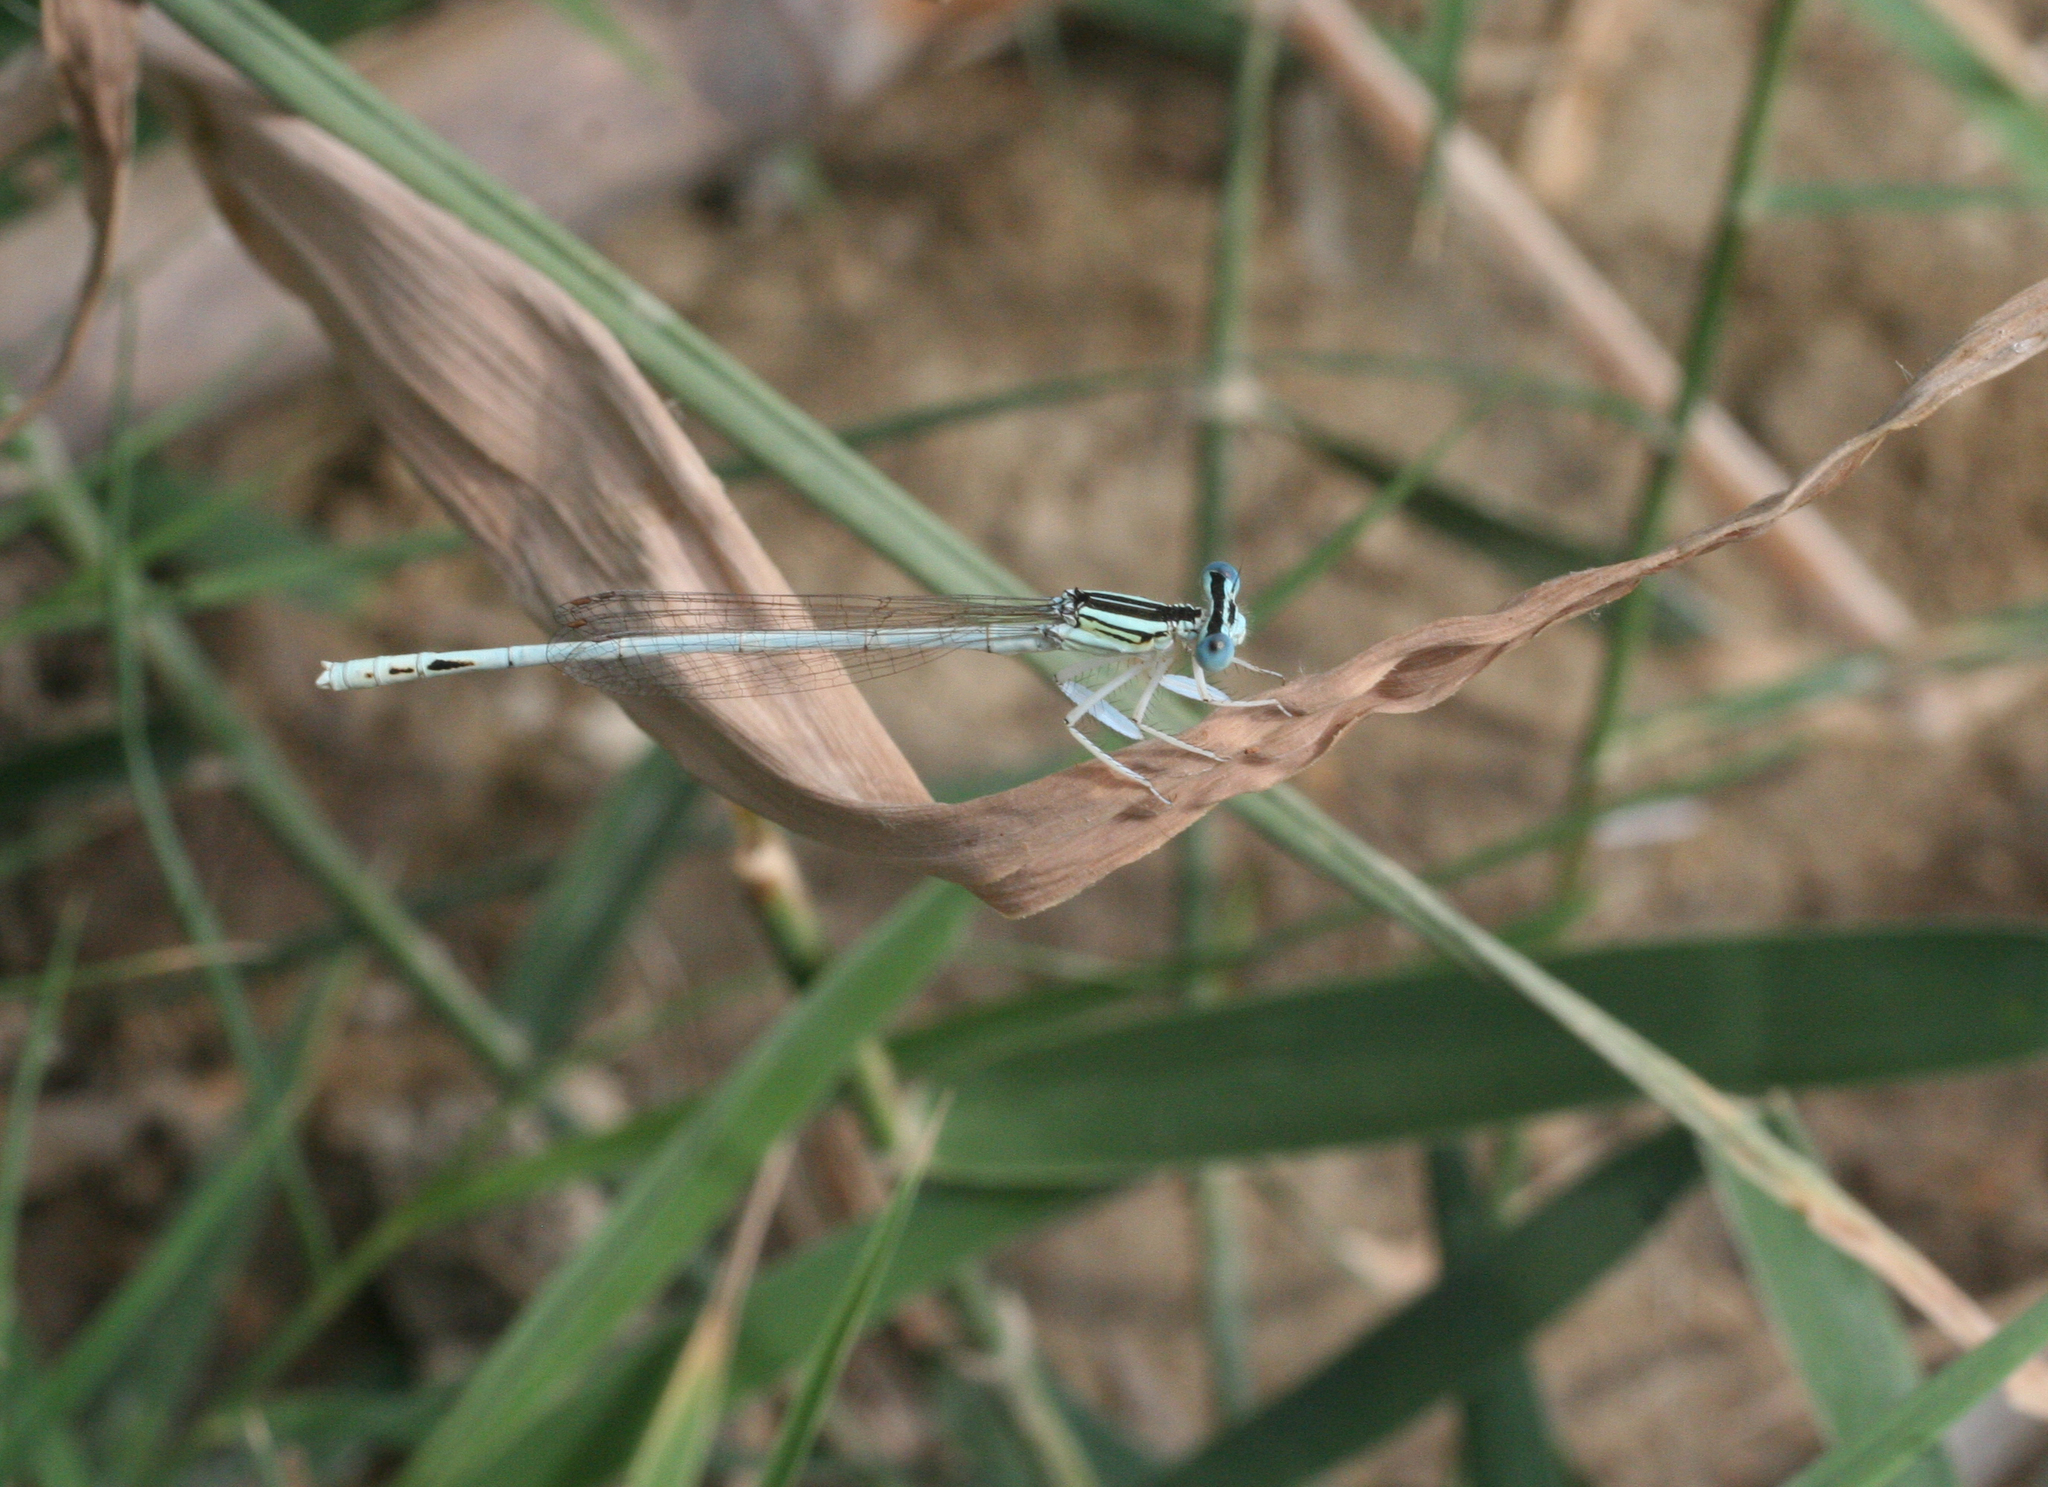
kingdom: Animalia
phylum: Arthropoda
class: Insecta
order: Odonata
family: Platycnemididae
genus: Platycnemis
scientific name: Platycnemis dealbata
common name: Ivory featherleg
